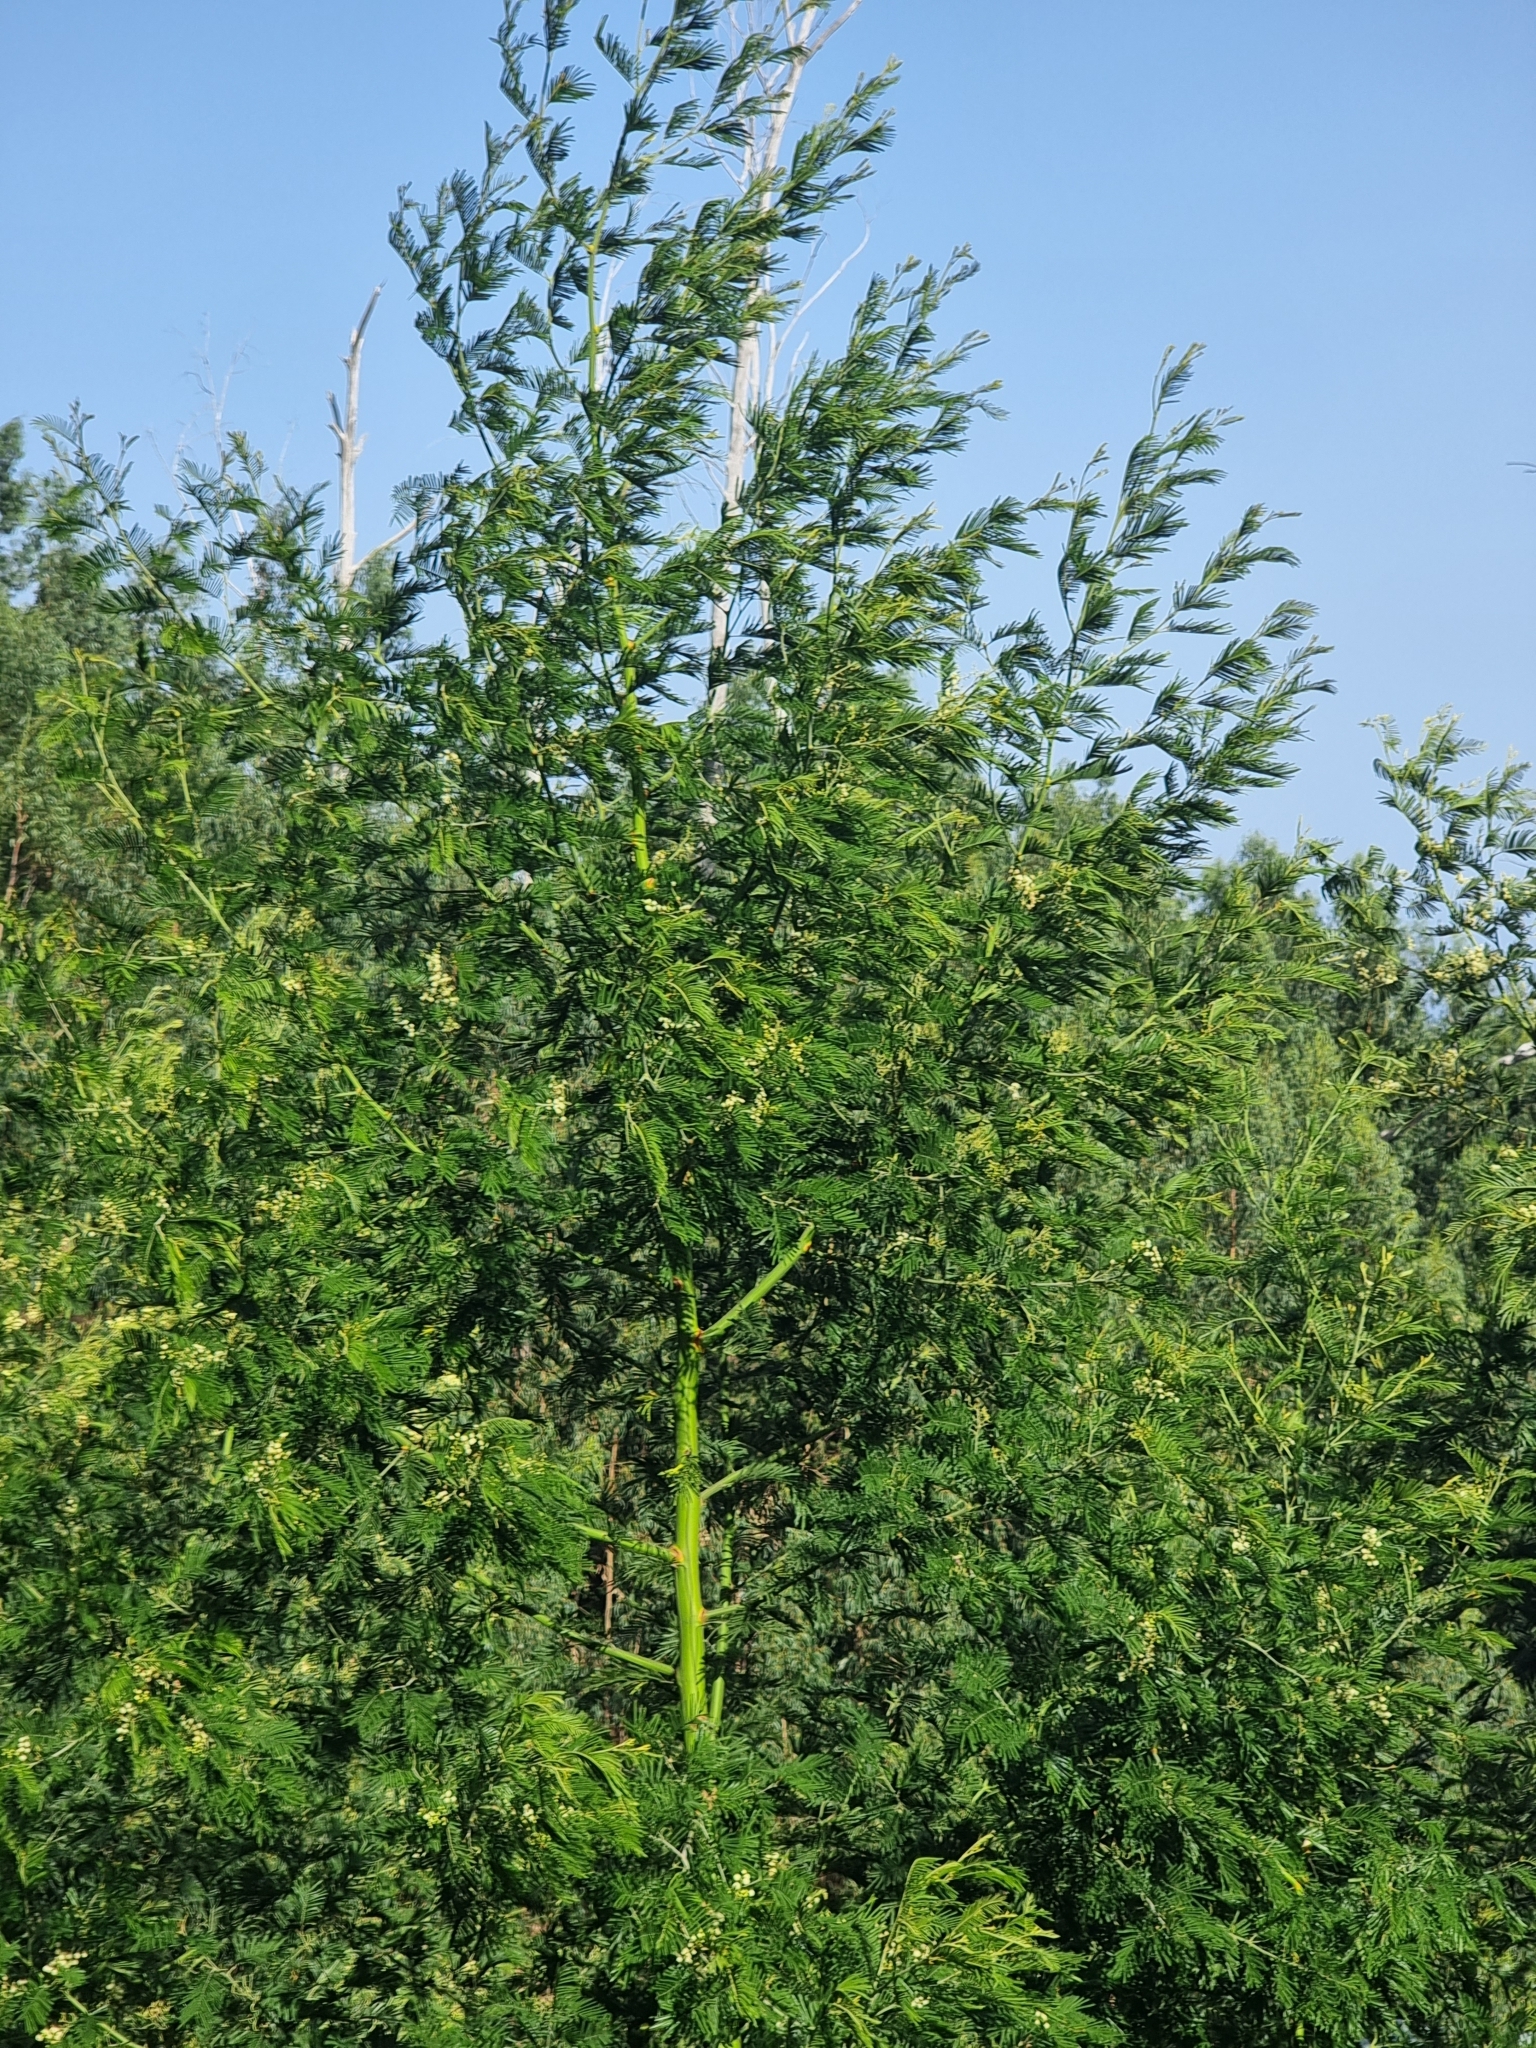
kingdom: Plantae
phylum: Tracheophyta
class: Magnoliopsida
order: Fabales
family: Fabaceae
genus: Acacia
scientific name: Acacia mearnsii
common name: Black wattle
